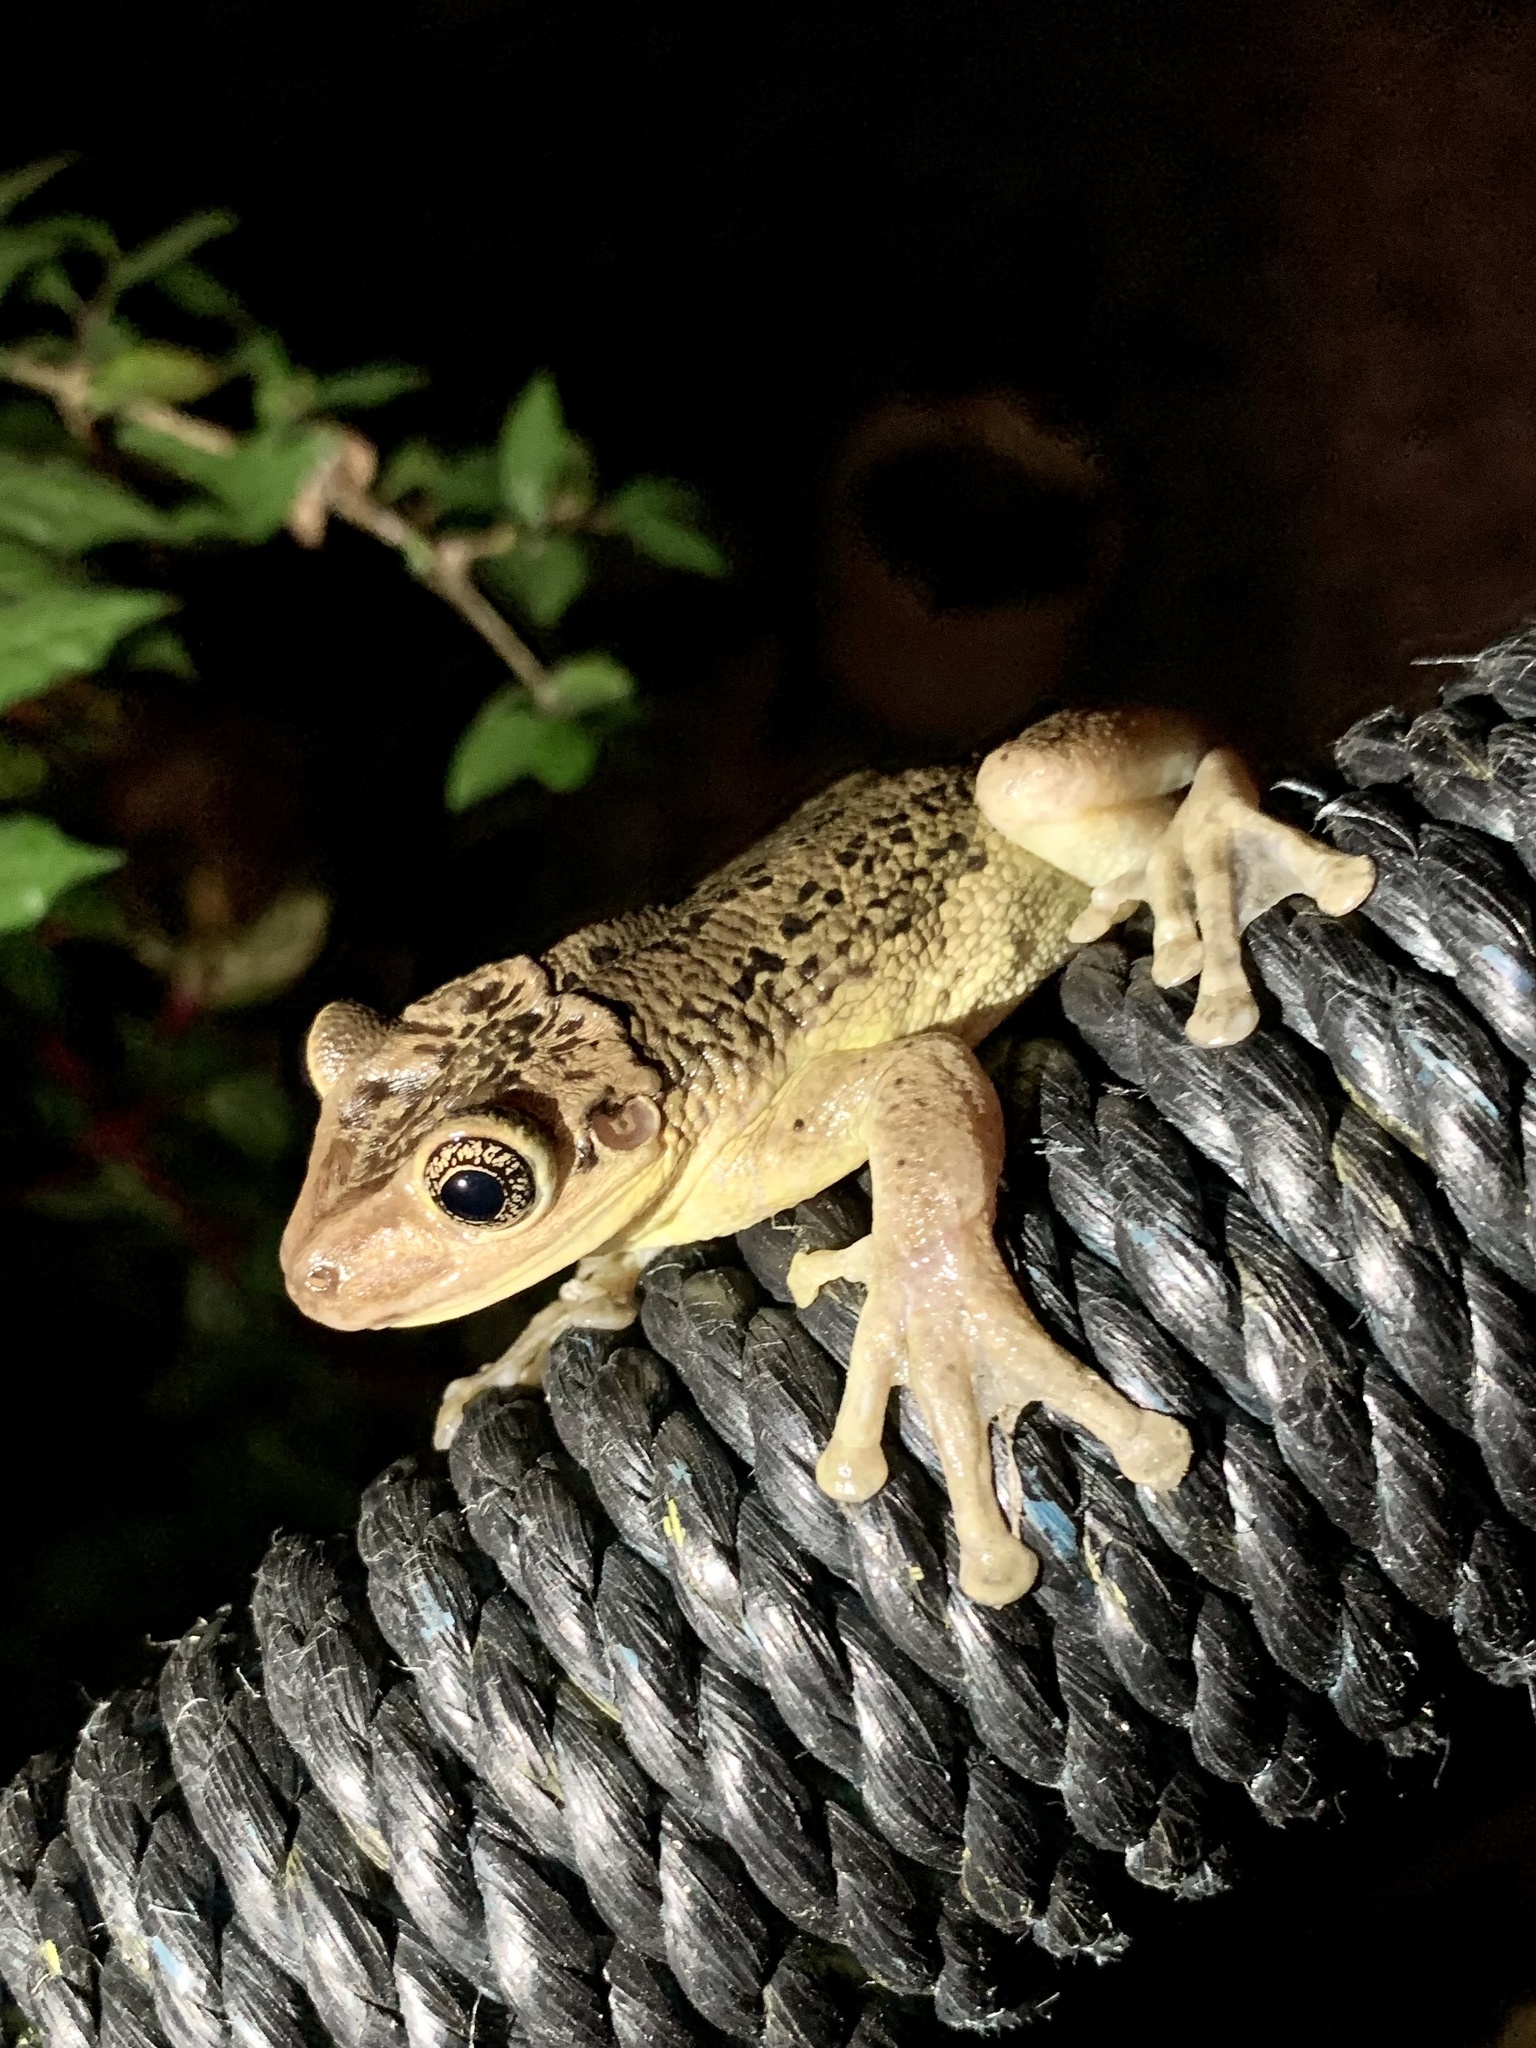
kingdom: Animalia
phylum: Chordata
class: Amphibia
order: Anura
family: Hylidae
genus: Trachycephalus
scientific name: Trachycephalus jordani
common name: Jordan's casque-headed treefrog
